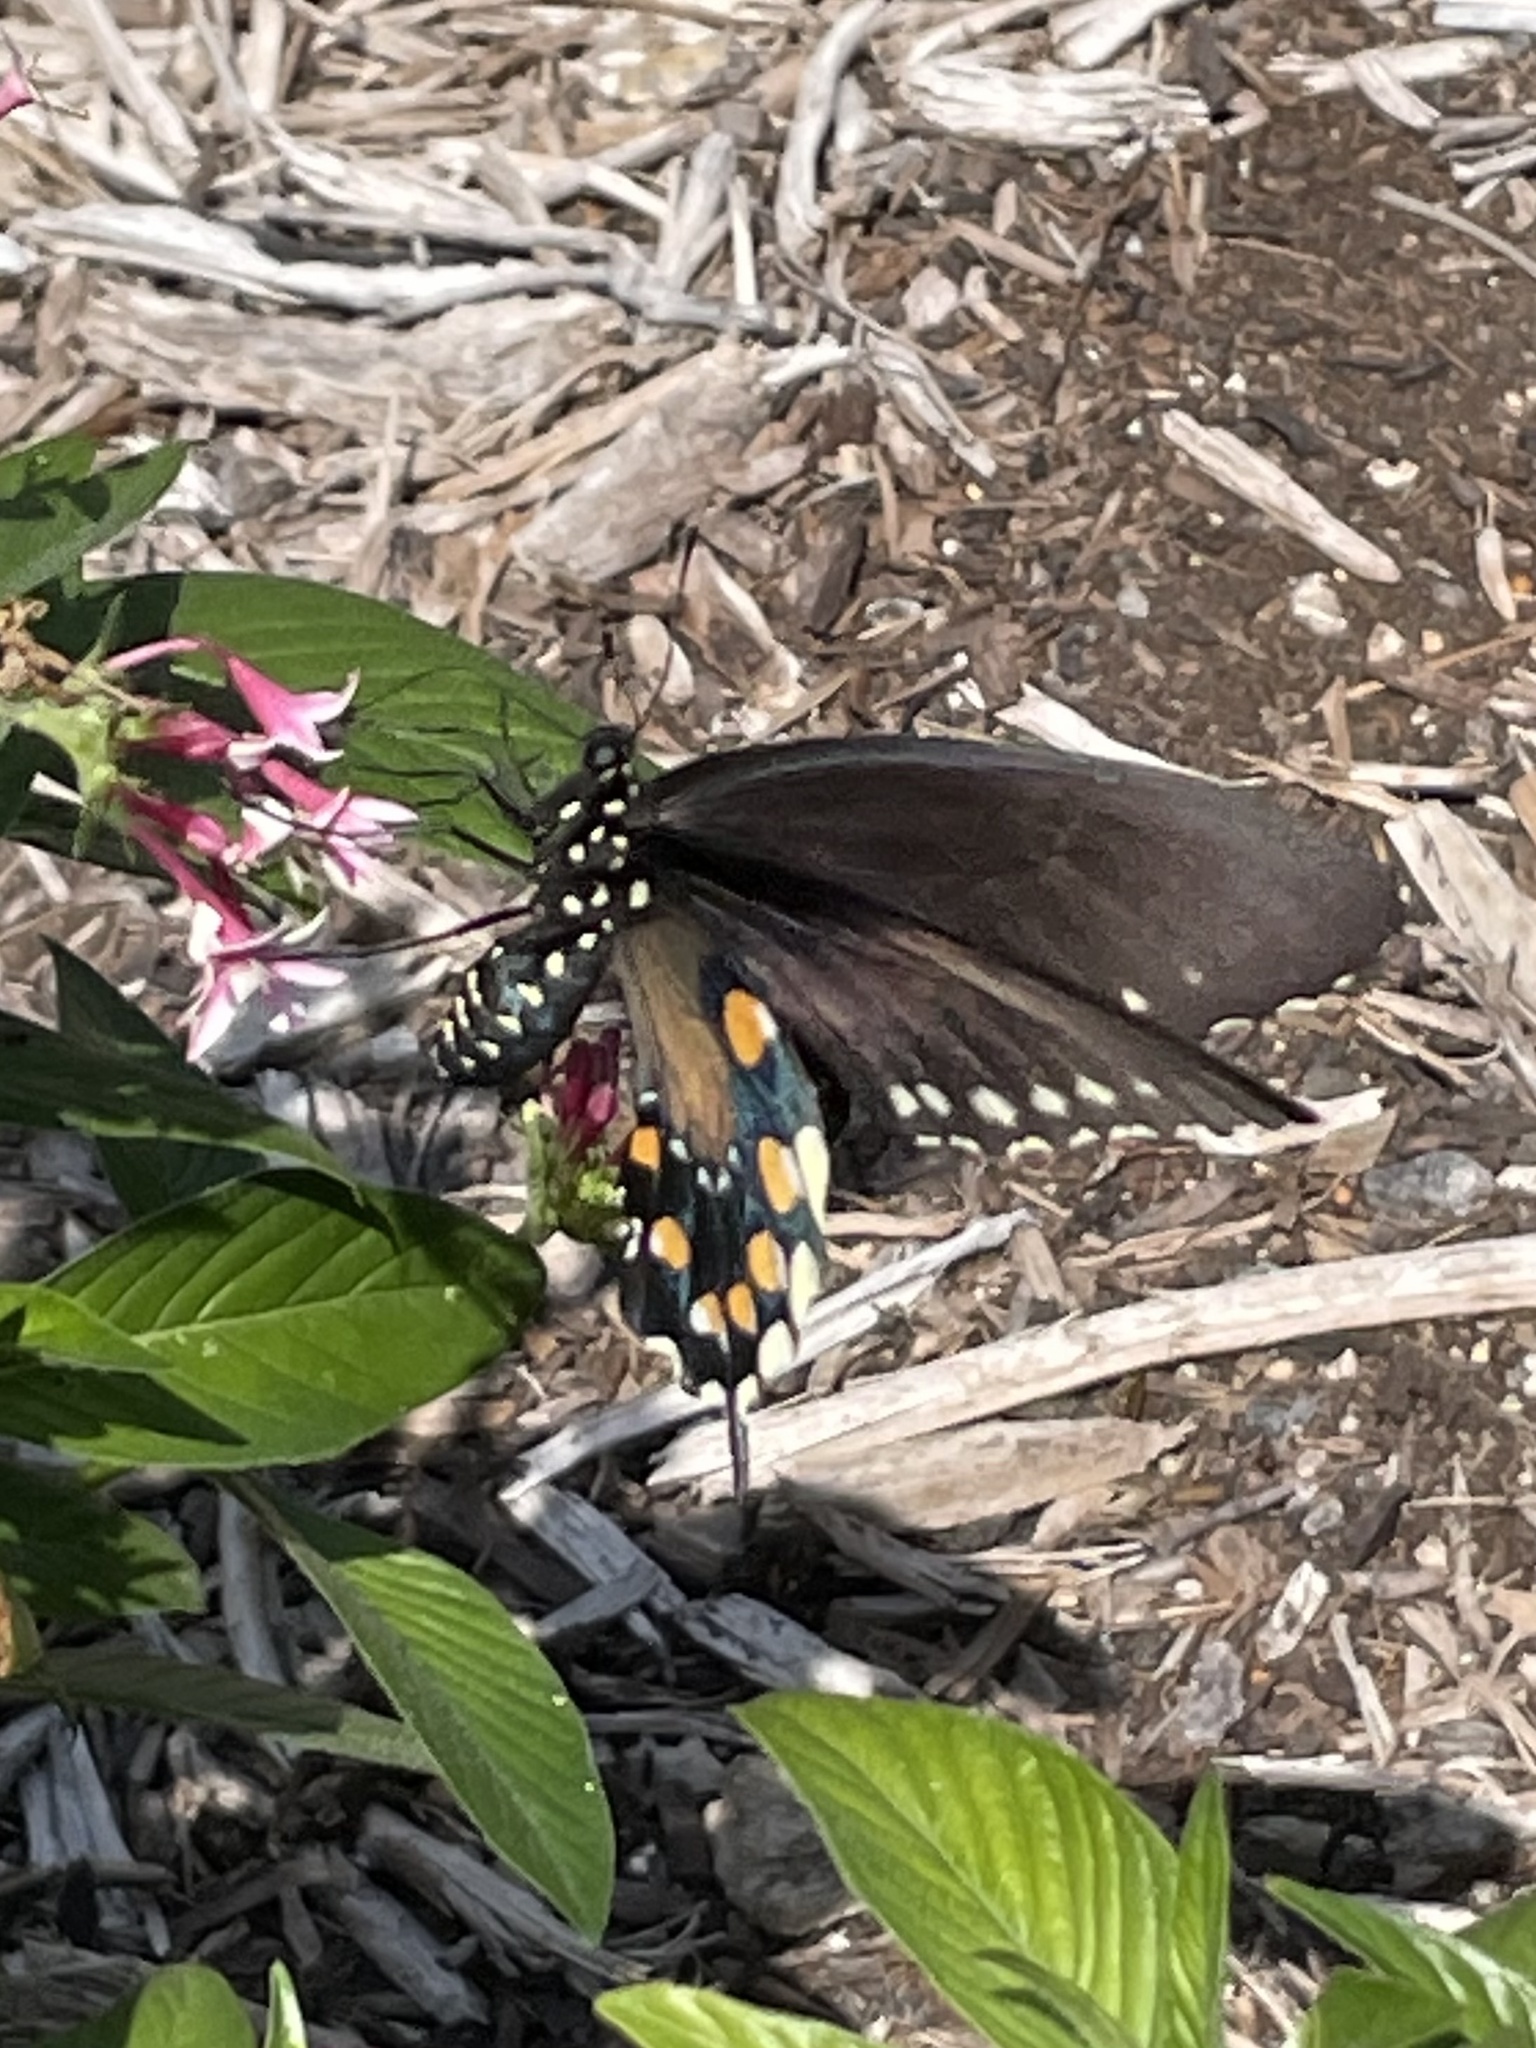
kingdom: Animalia
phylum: Arthropoda
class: Insecta
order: Lepidoptera
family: Papilionidae
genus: Battus
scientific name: Battus philenor
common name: Pipevine swallowtail
